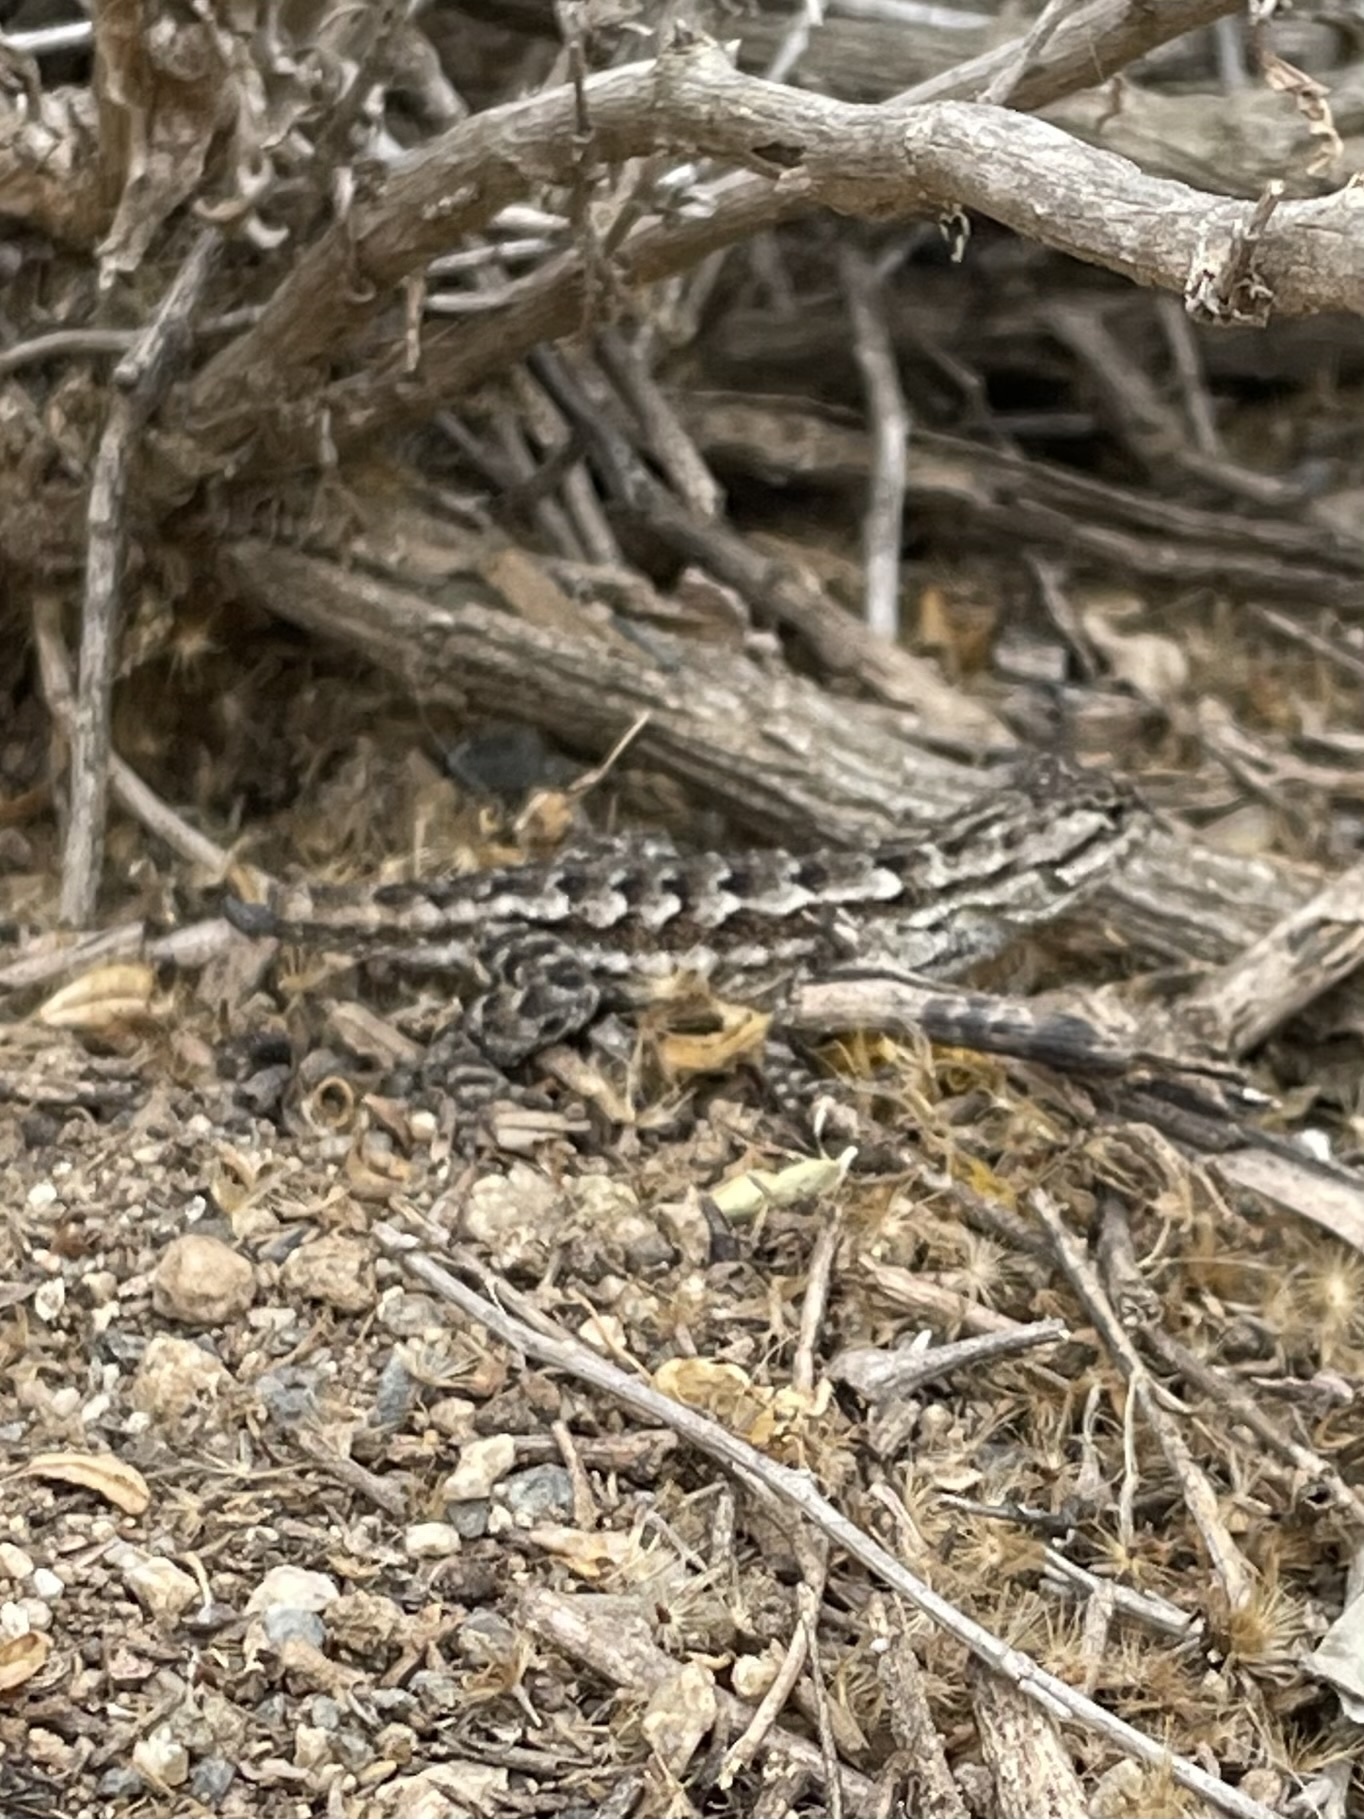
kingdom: Animalia
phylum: Chordata
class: Squamata
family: Phrynosomatidae
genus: Sceloporus
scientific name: Sceloporus occidentalis
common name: Western fence lizard
